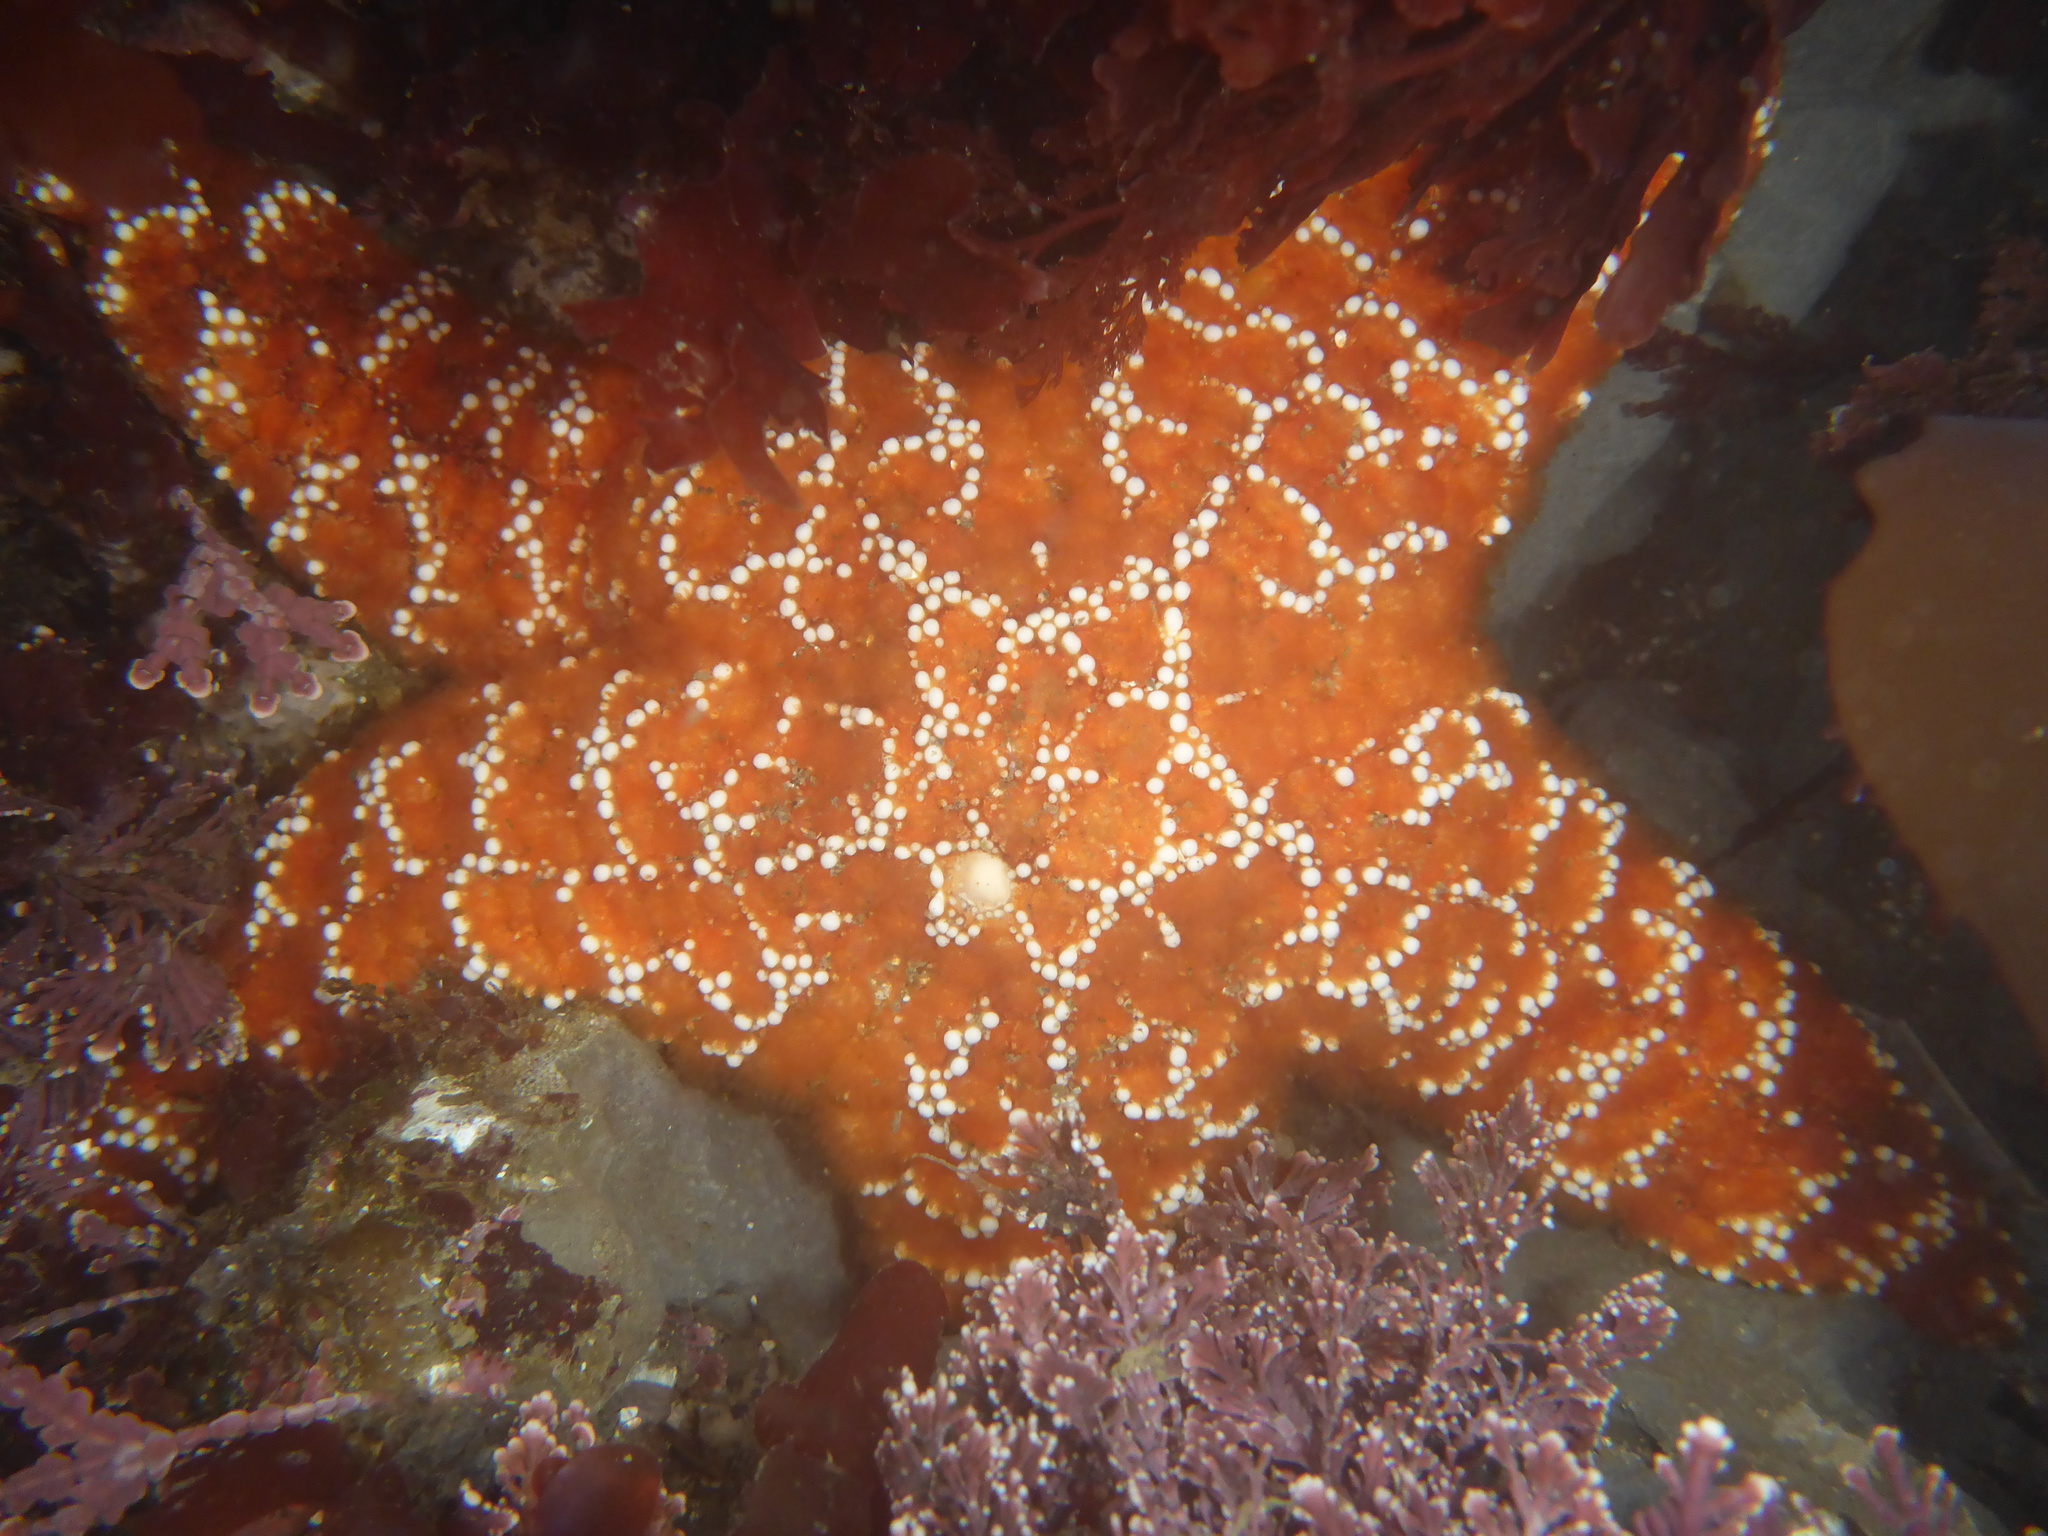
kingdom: Animalia
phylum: Echinodermata
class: Asteroidea
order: Forcipulatida
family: Asteriidae
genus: Pisaster
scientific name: Pisaster ochraceus
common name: Ochre stars
